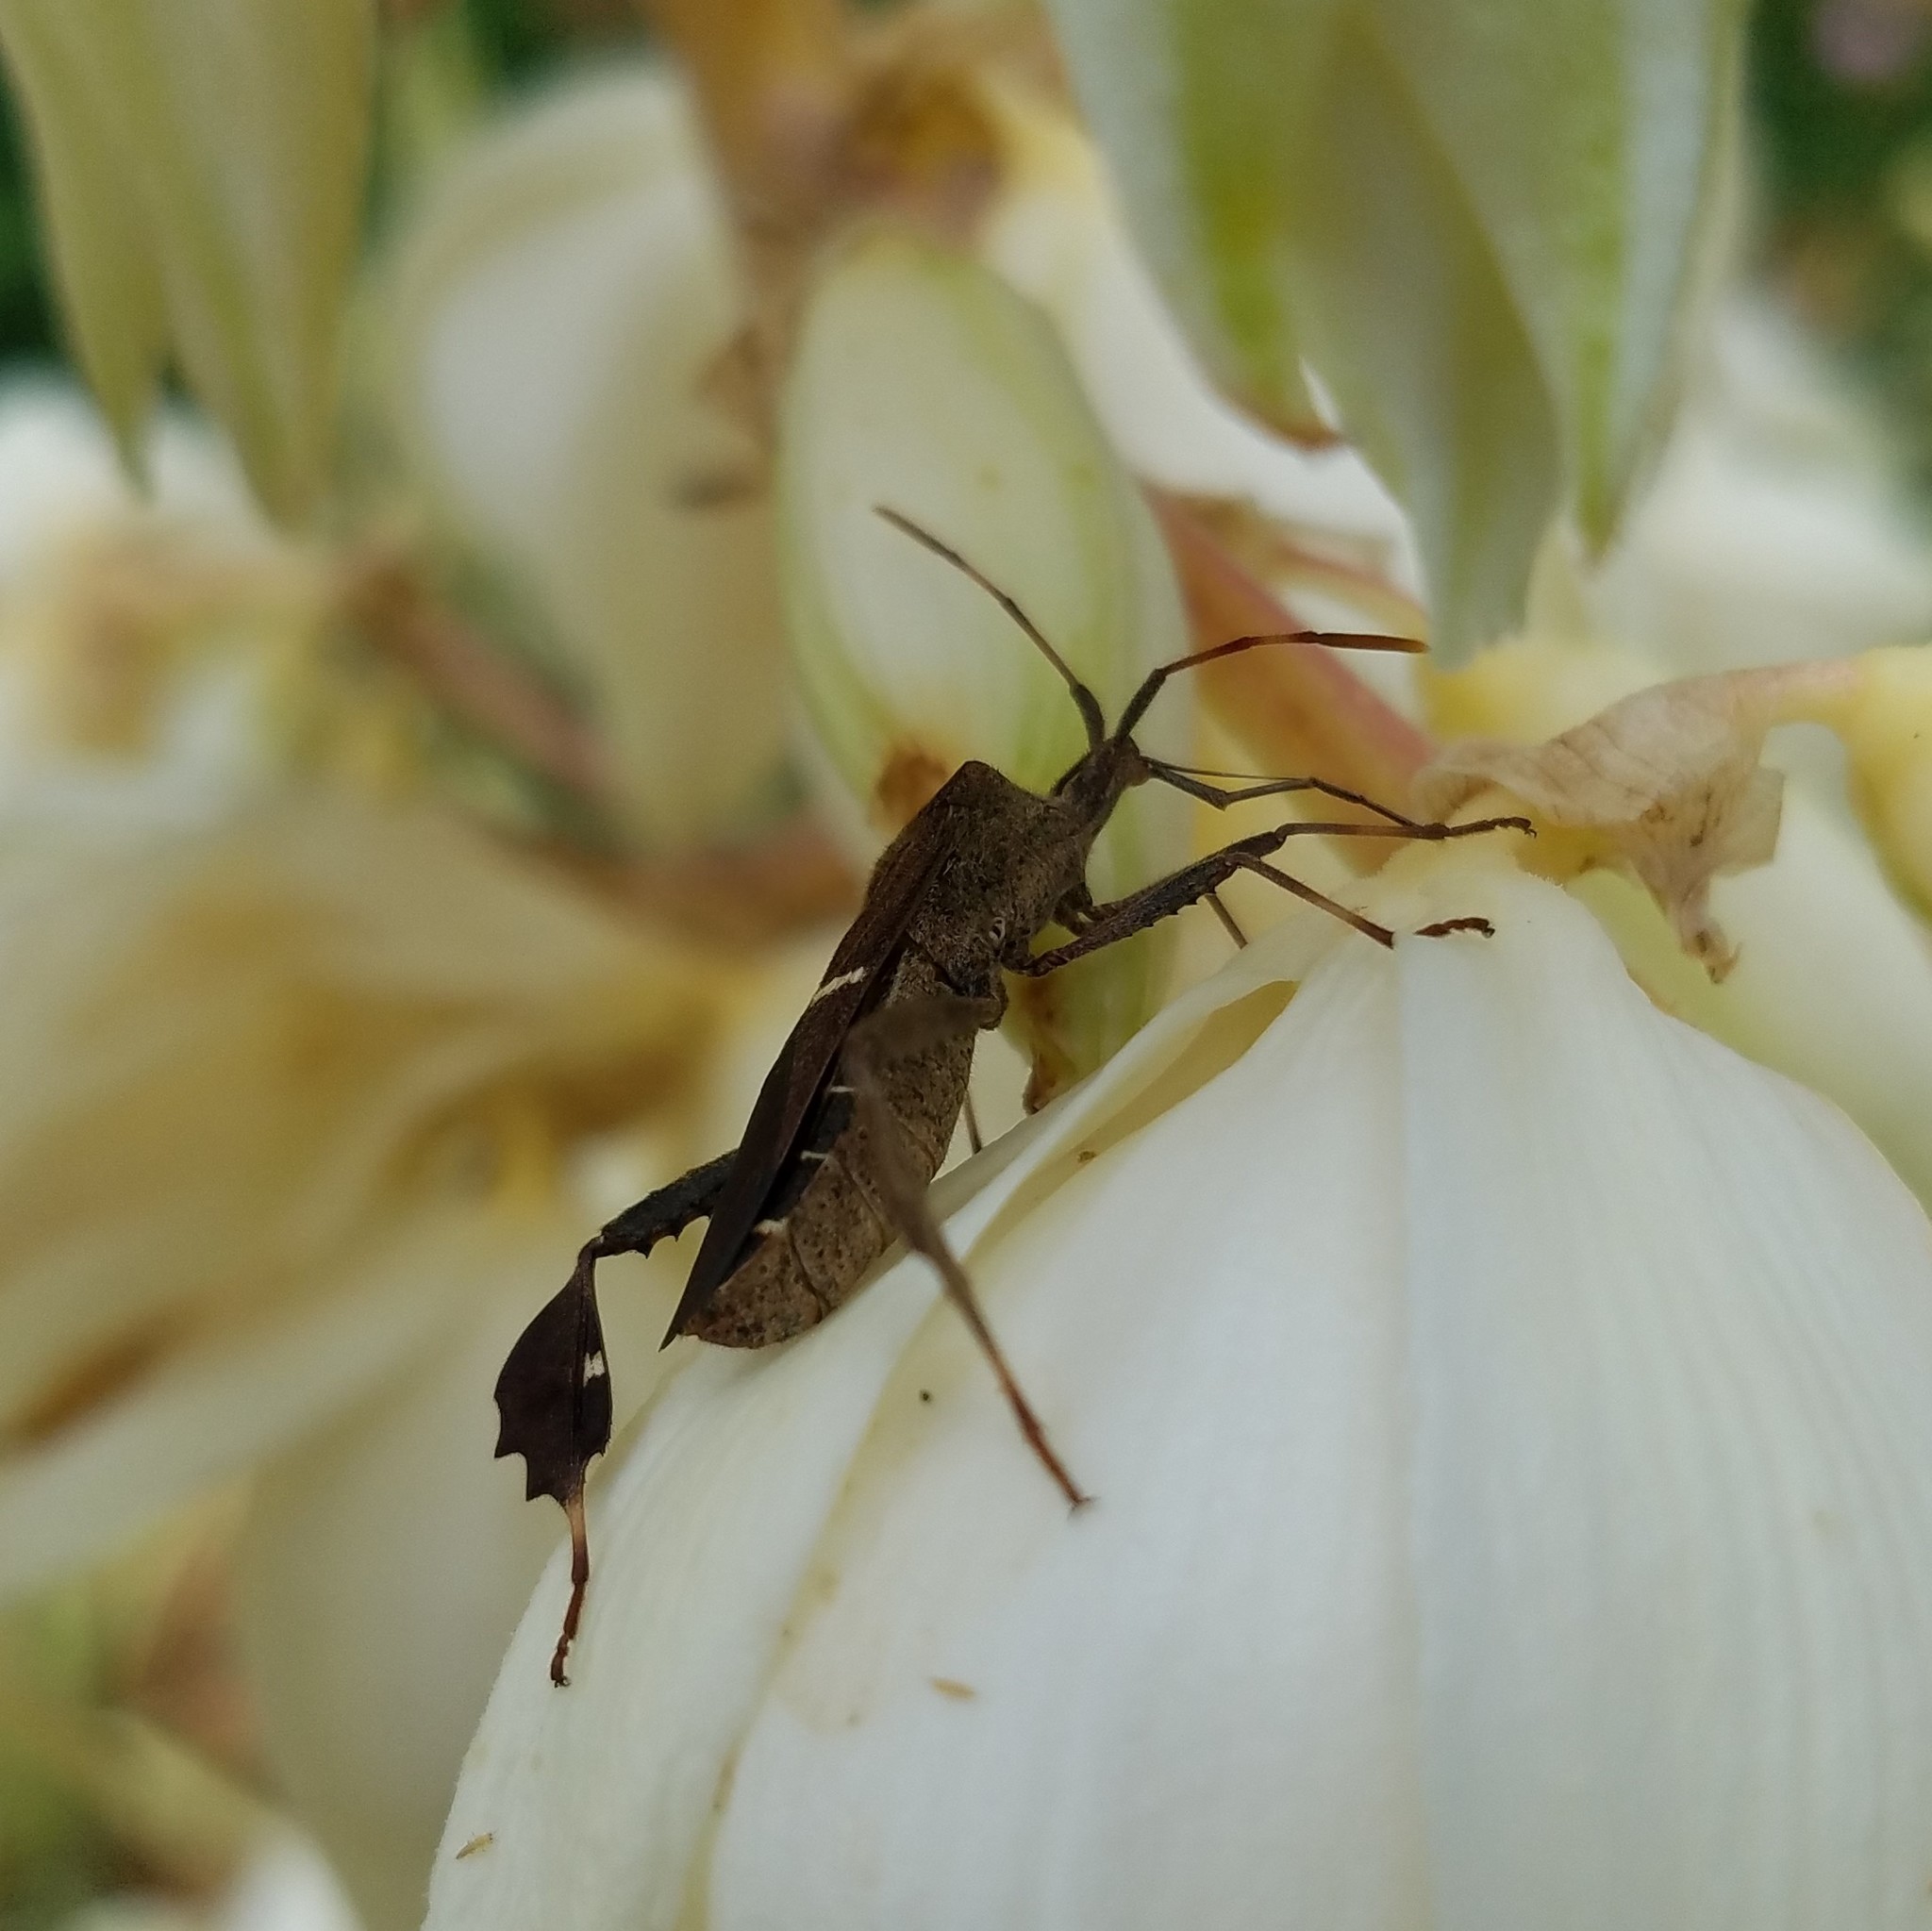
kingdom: Animalia
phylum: Arthropoda
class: Insecta
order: Hemiptera
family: Coreidae
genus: Leptoglossus
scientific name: Leptoglossus phyllopus
